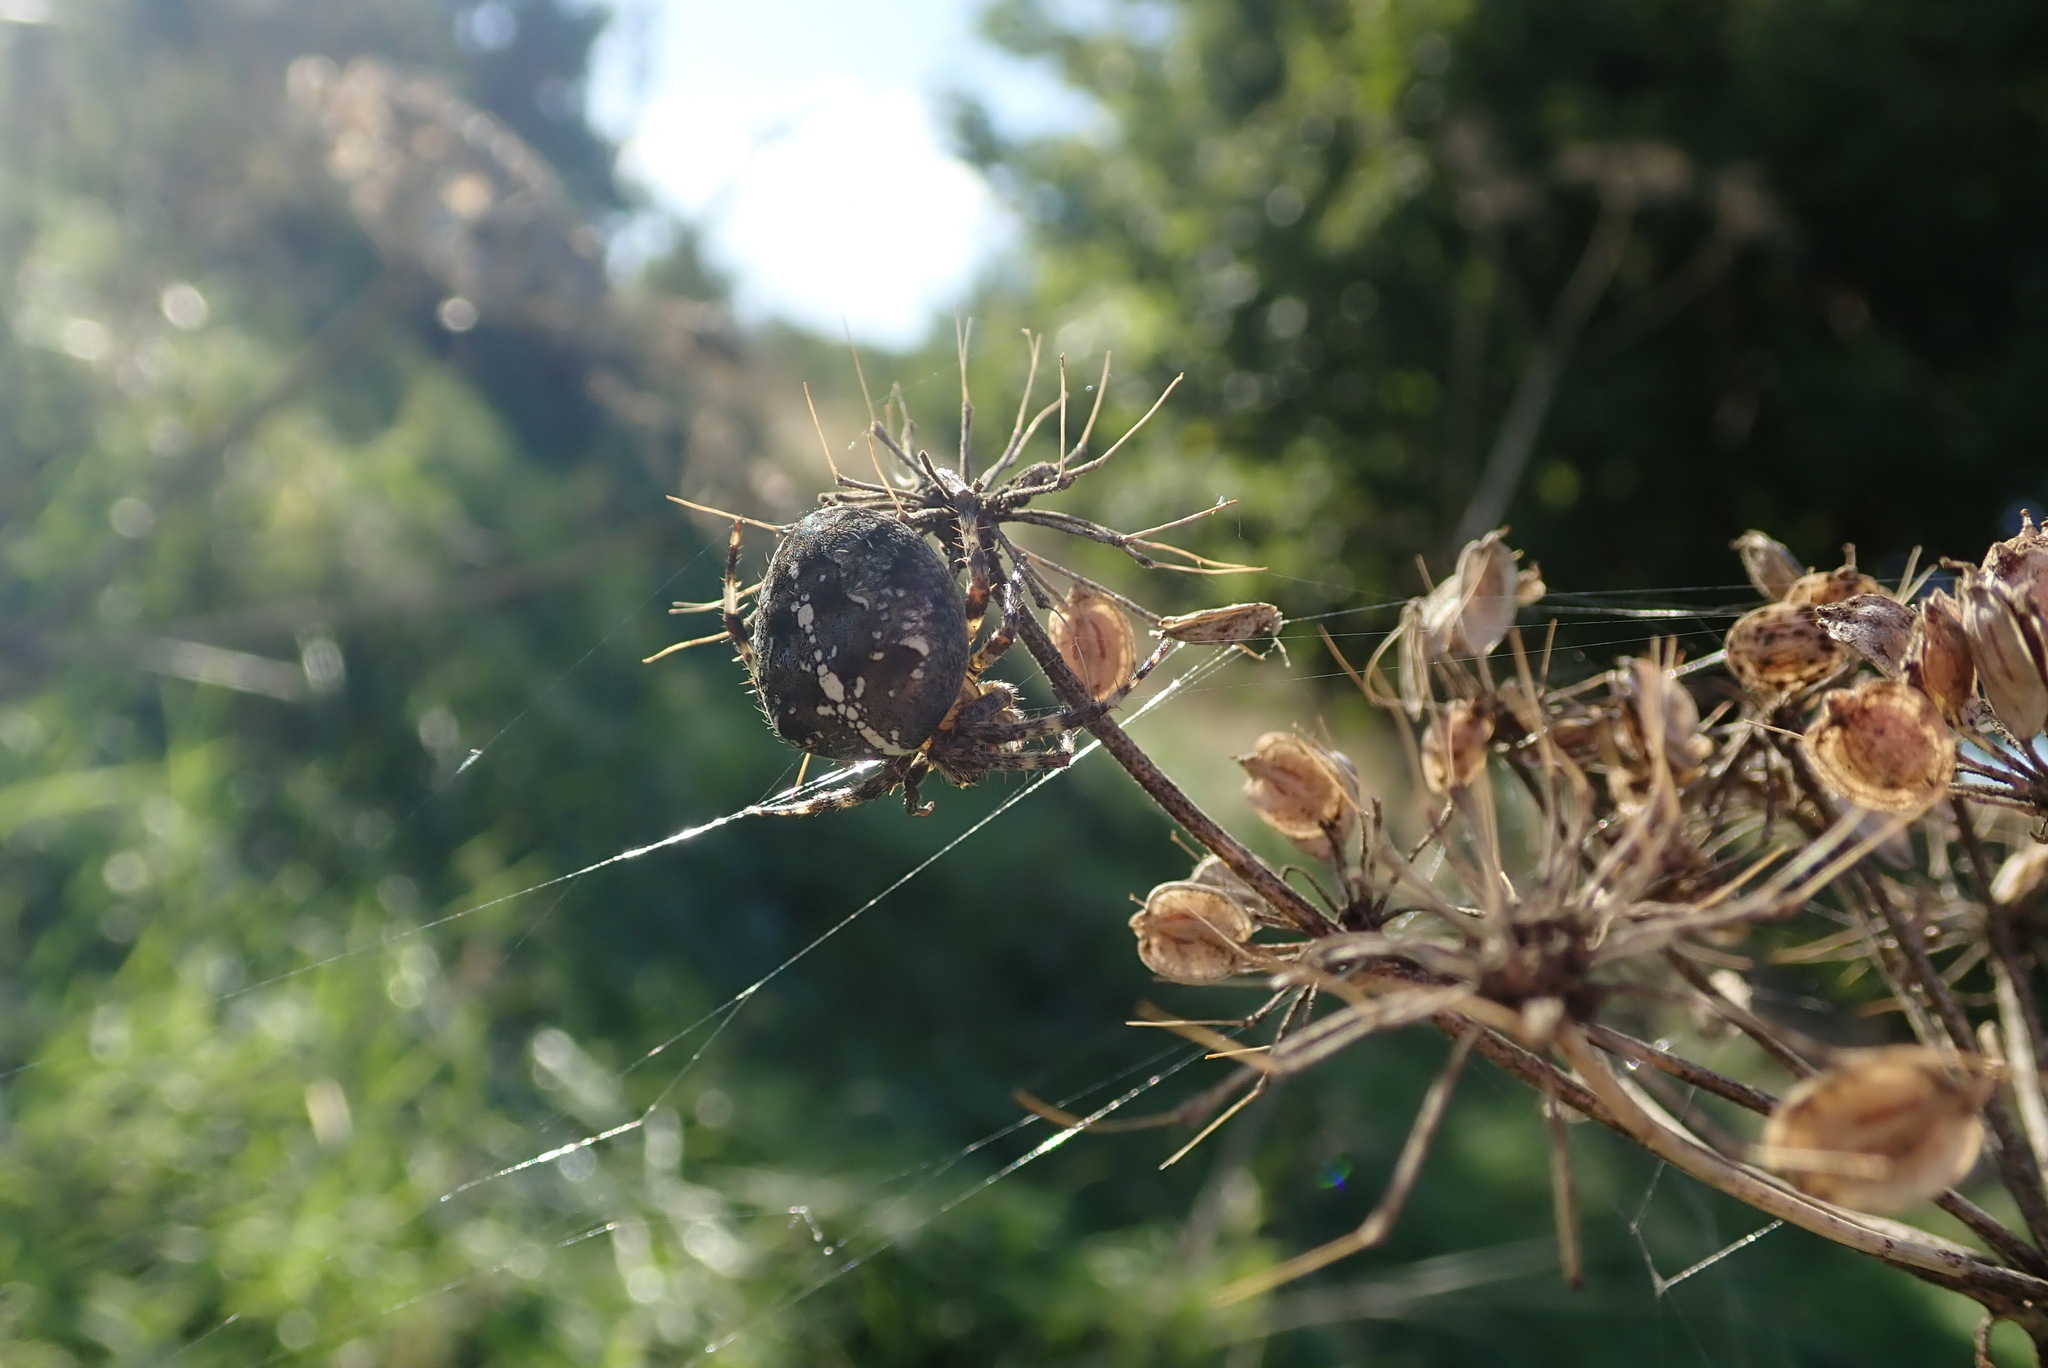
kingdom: Animalia
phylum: Arthropoda
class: Arachnida
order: Araneae
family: Araneidae
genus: Araneus
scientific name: Araneus diadematus
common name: Cross orbweaver
